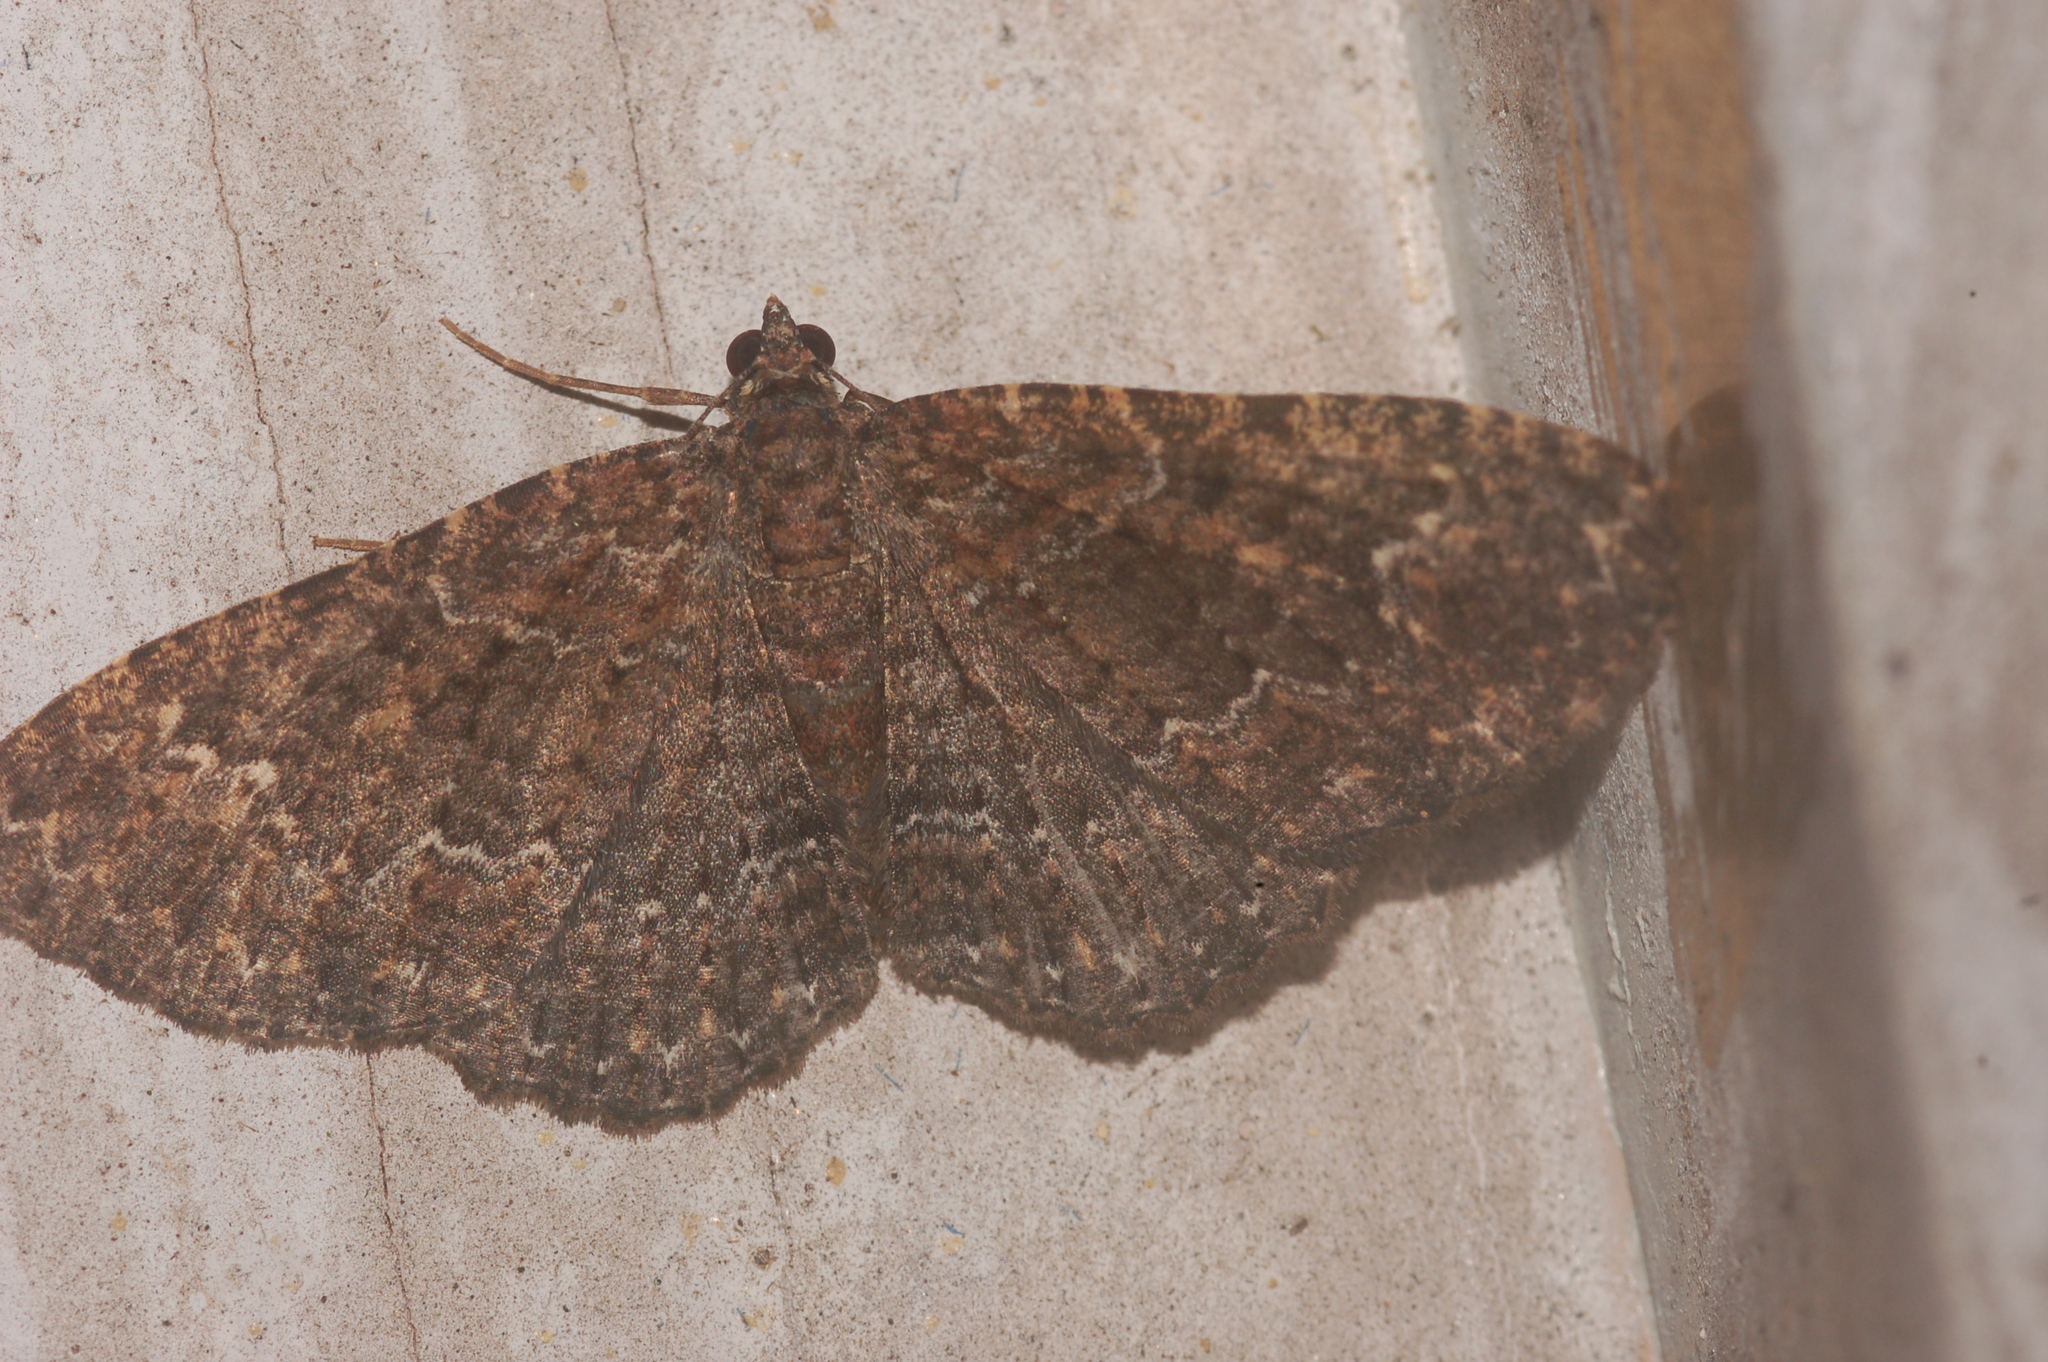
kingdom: Animalia
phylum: Arthropoda
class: Insecta
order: Lepidoptera
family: Geometridae
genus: Disclisioprocta
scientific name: Disclisioprocta stellata
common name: Somber carpet
